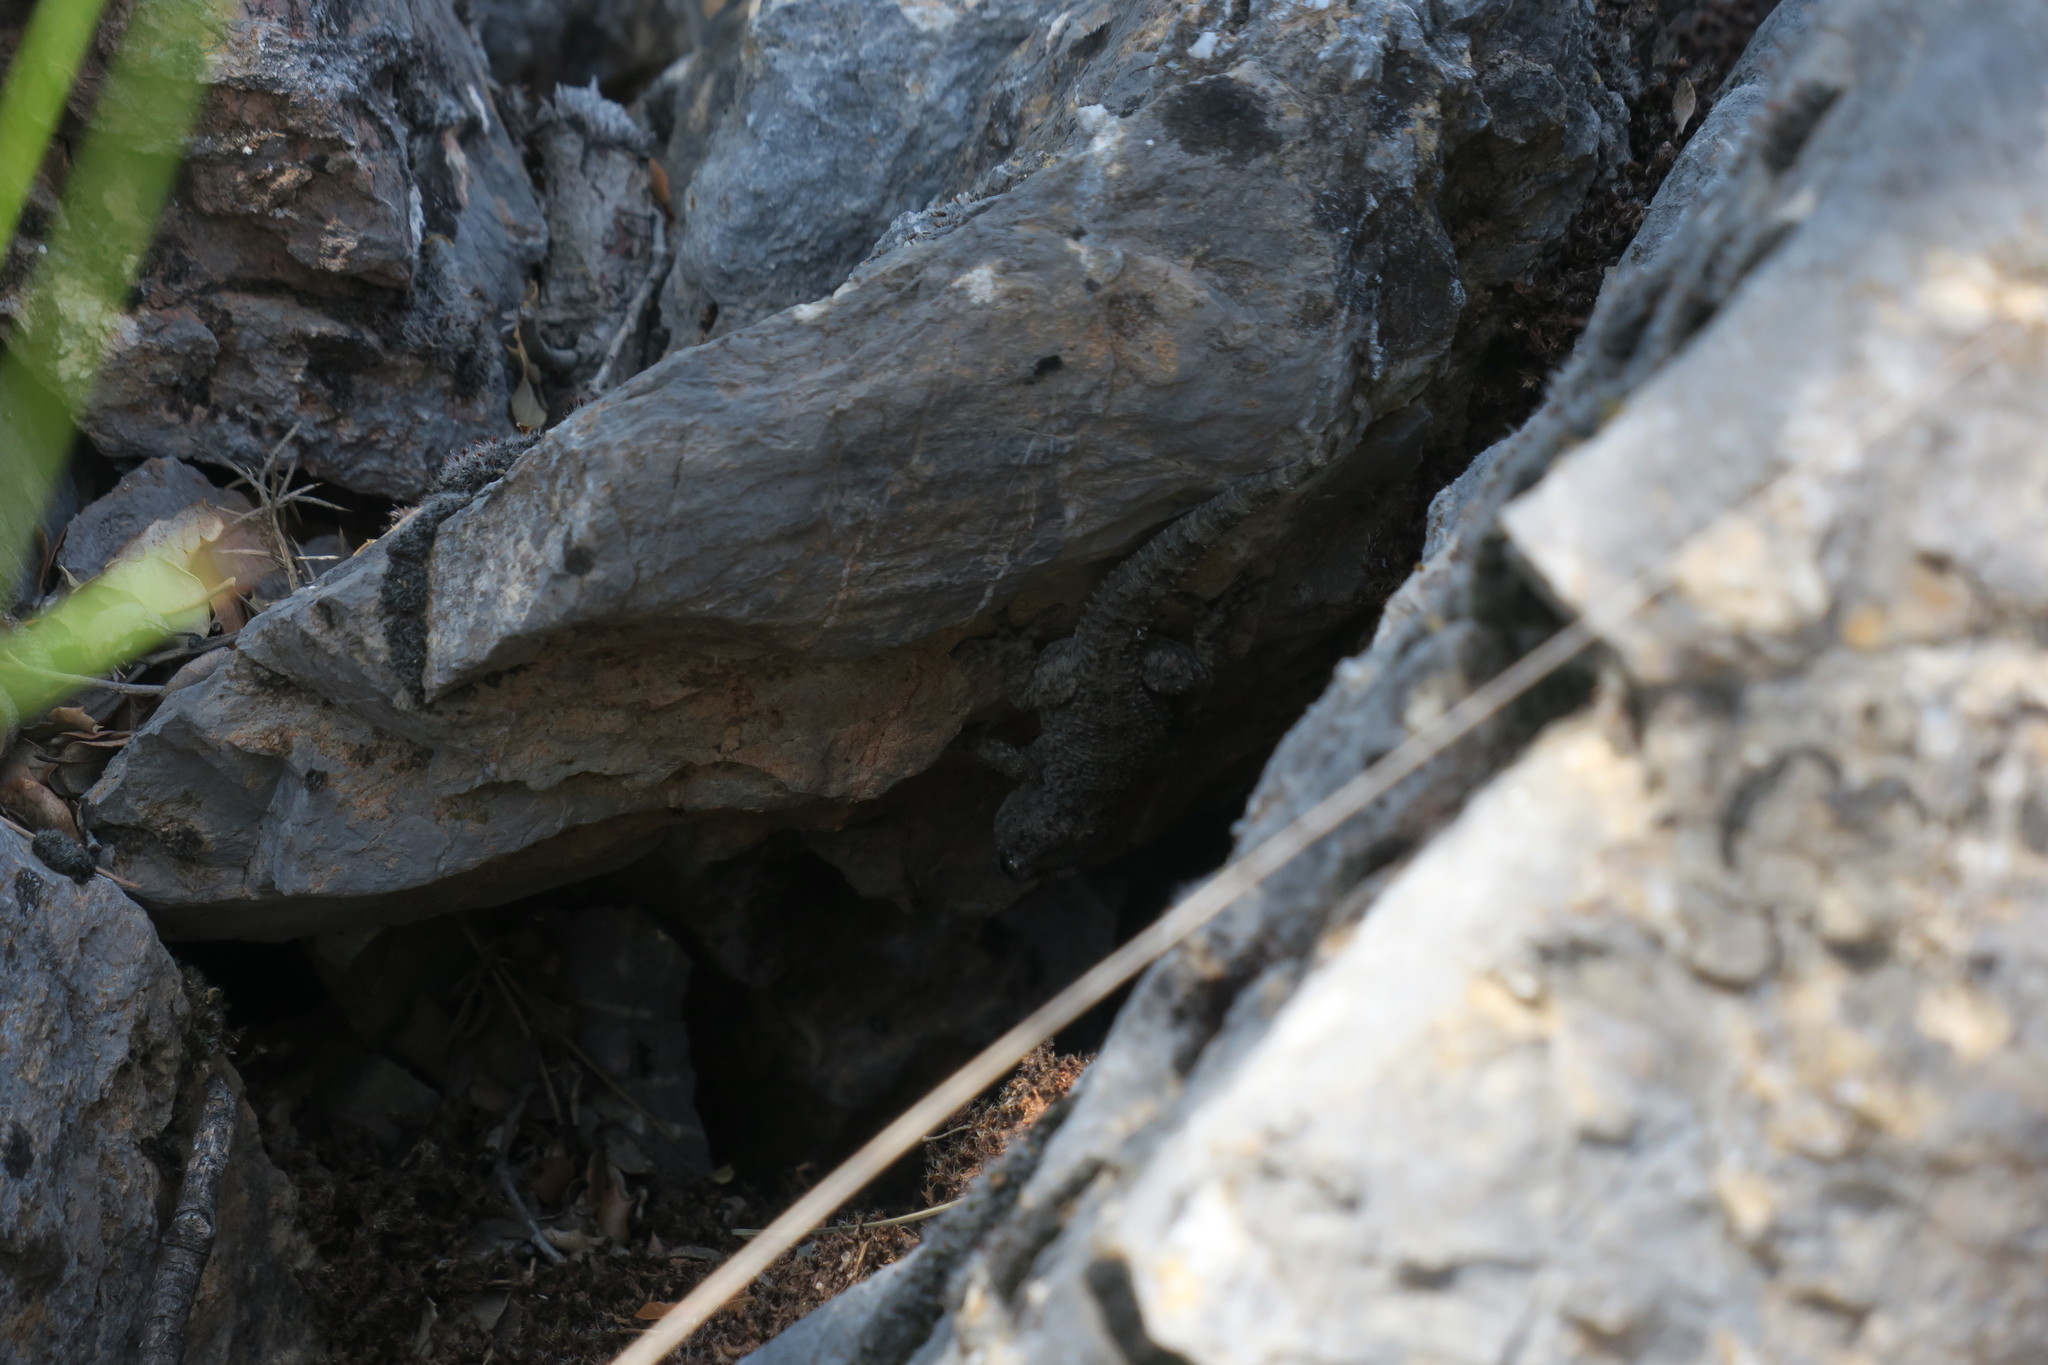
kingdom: Animalia
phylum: Chordata
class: Squamata
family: Phyllodactylidae
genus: Tarentola
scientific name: Tarentola mauritanica
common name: Moorish gecko
